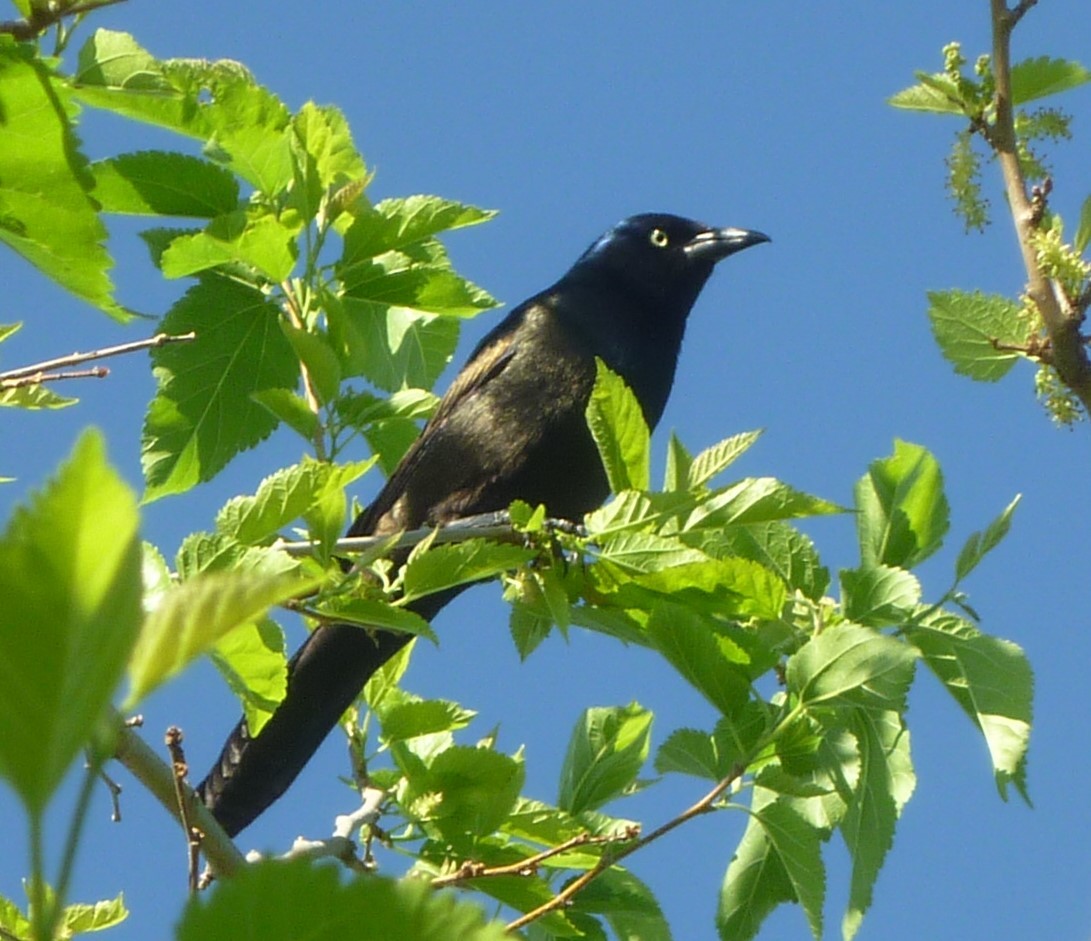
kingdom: Animalia
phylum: Chordata
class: Aves
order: Passeriformes
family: Icteridae
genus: Quiscalus
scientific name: Quiscalus quiscula
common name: Common grackle
